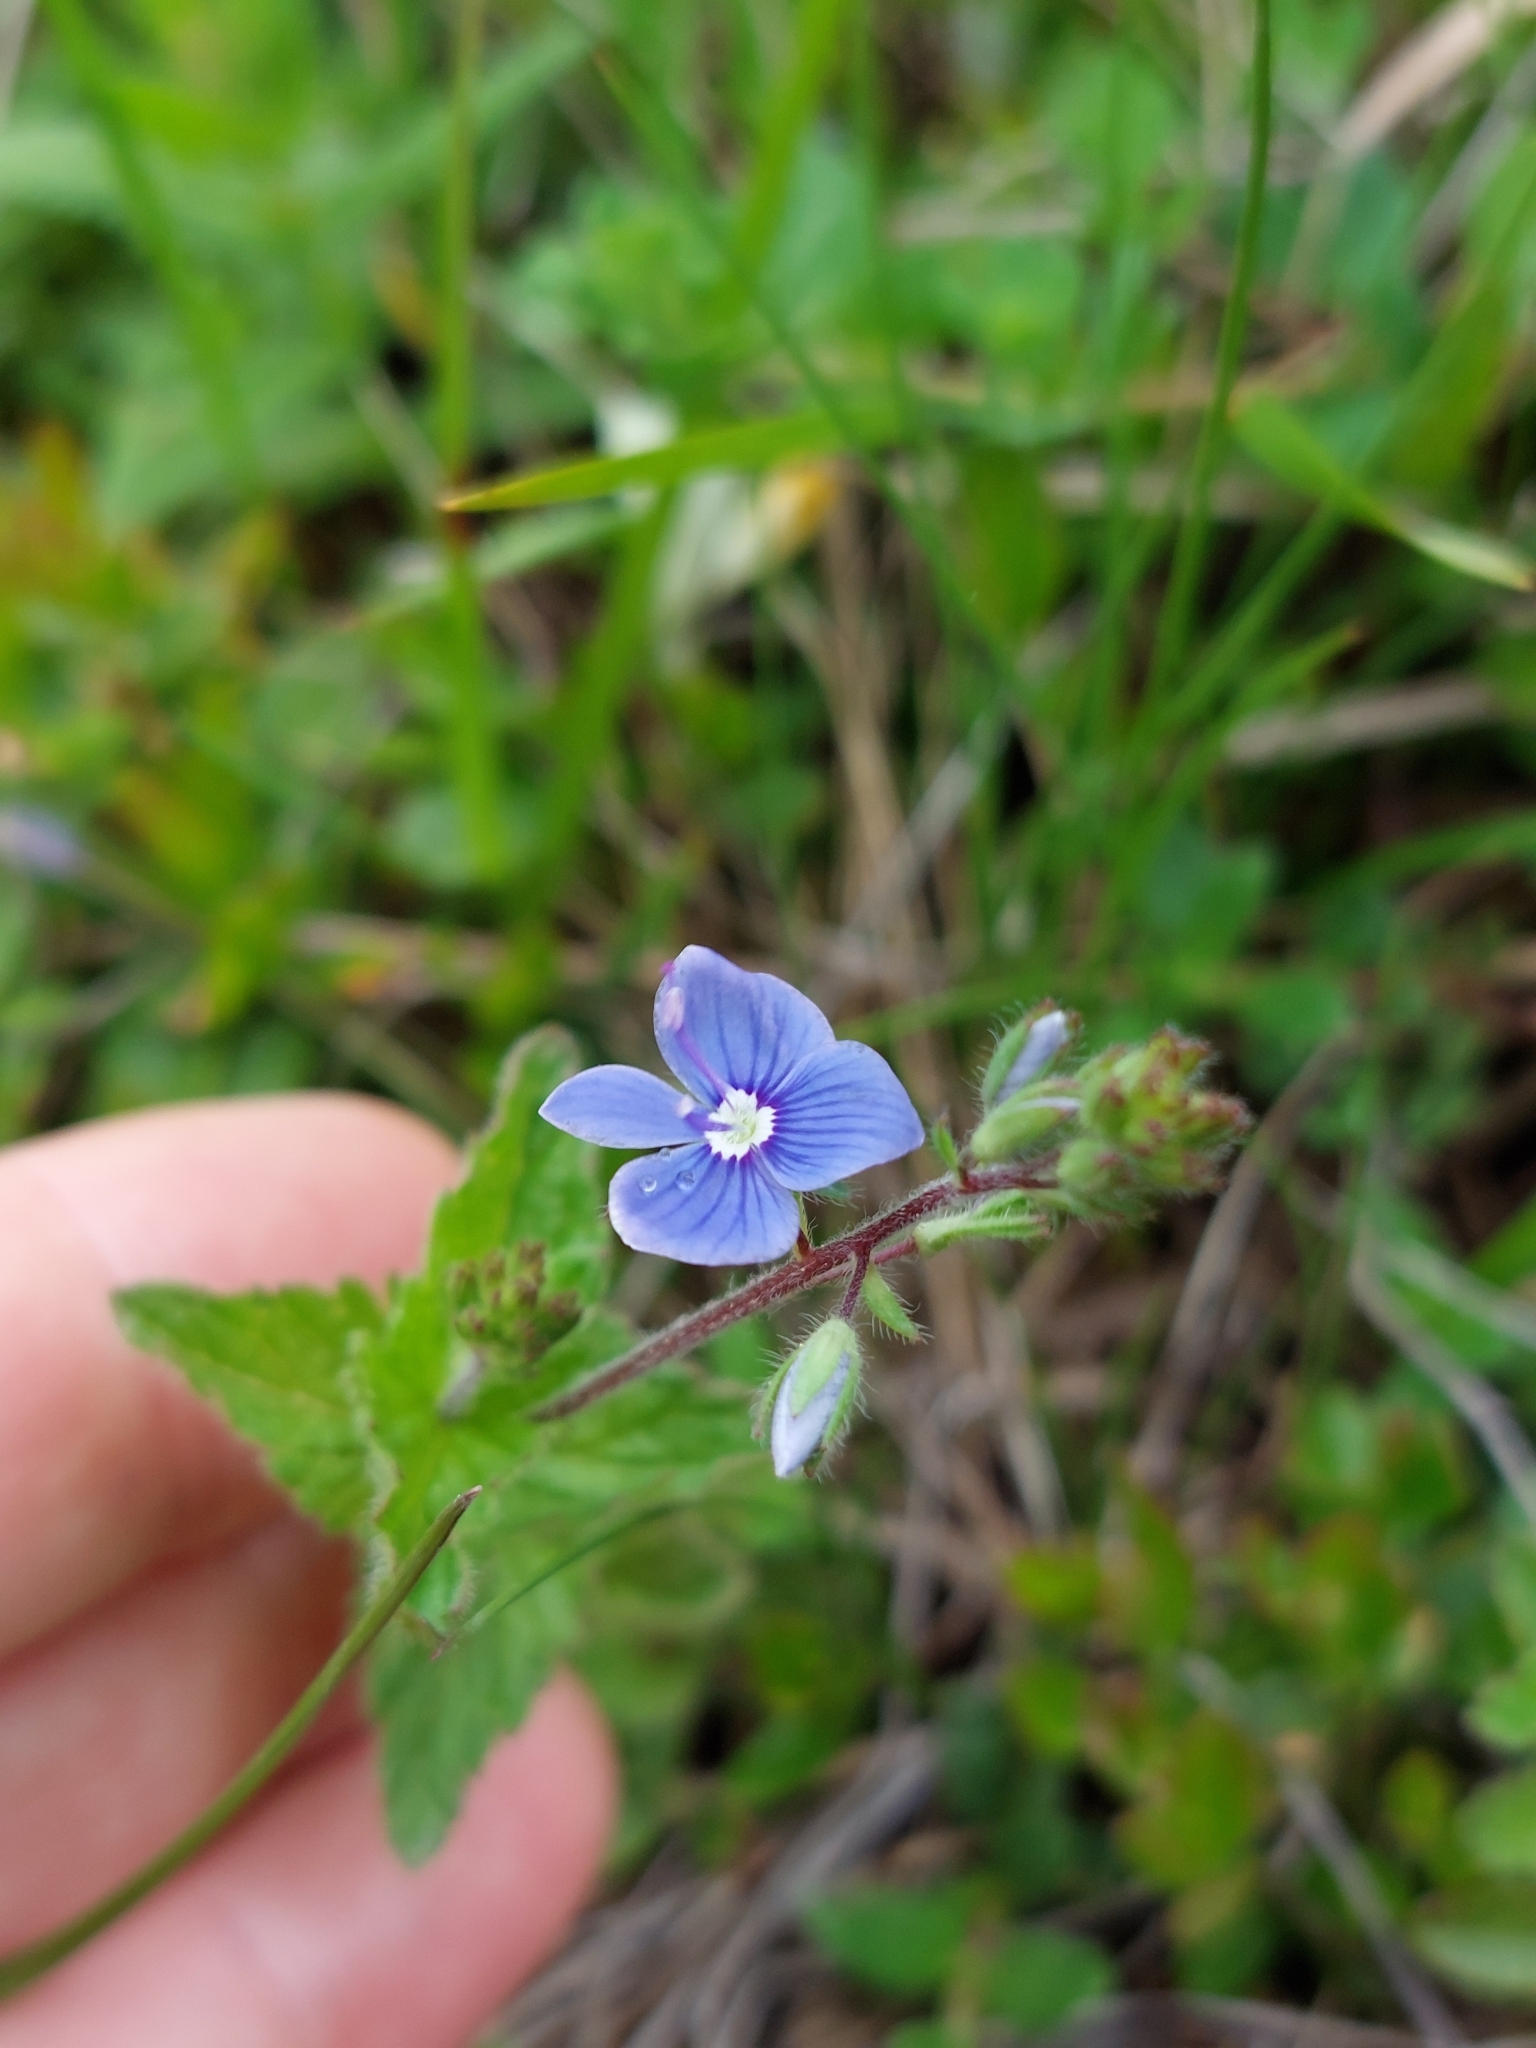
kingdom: Plantae
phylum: Tracheophyta
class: Magnoliopsida
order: Lamiales
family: Plantaginaceae
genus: Veronica
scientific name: Veronica chamaedrys
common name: Germander speedwell
